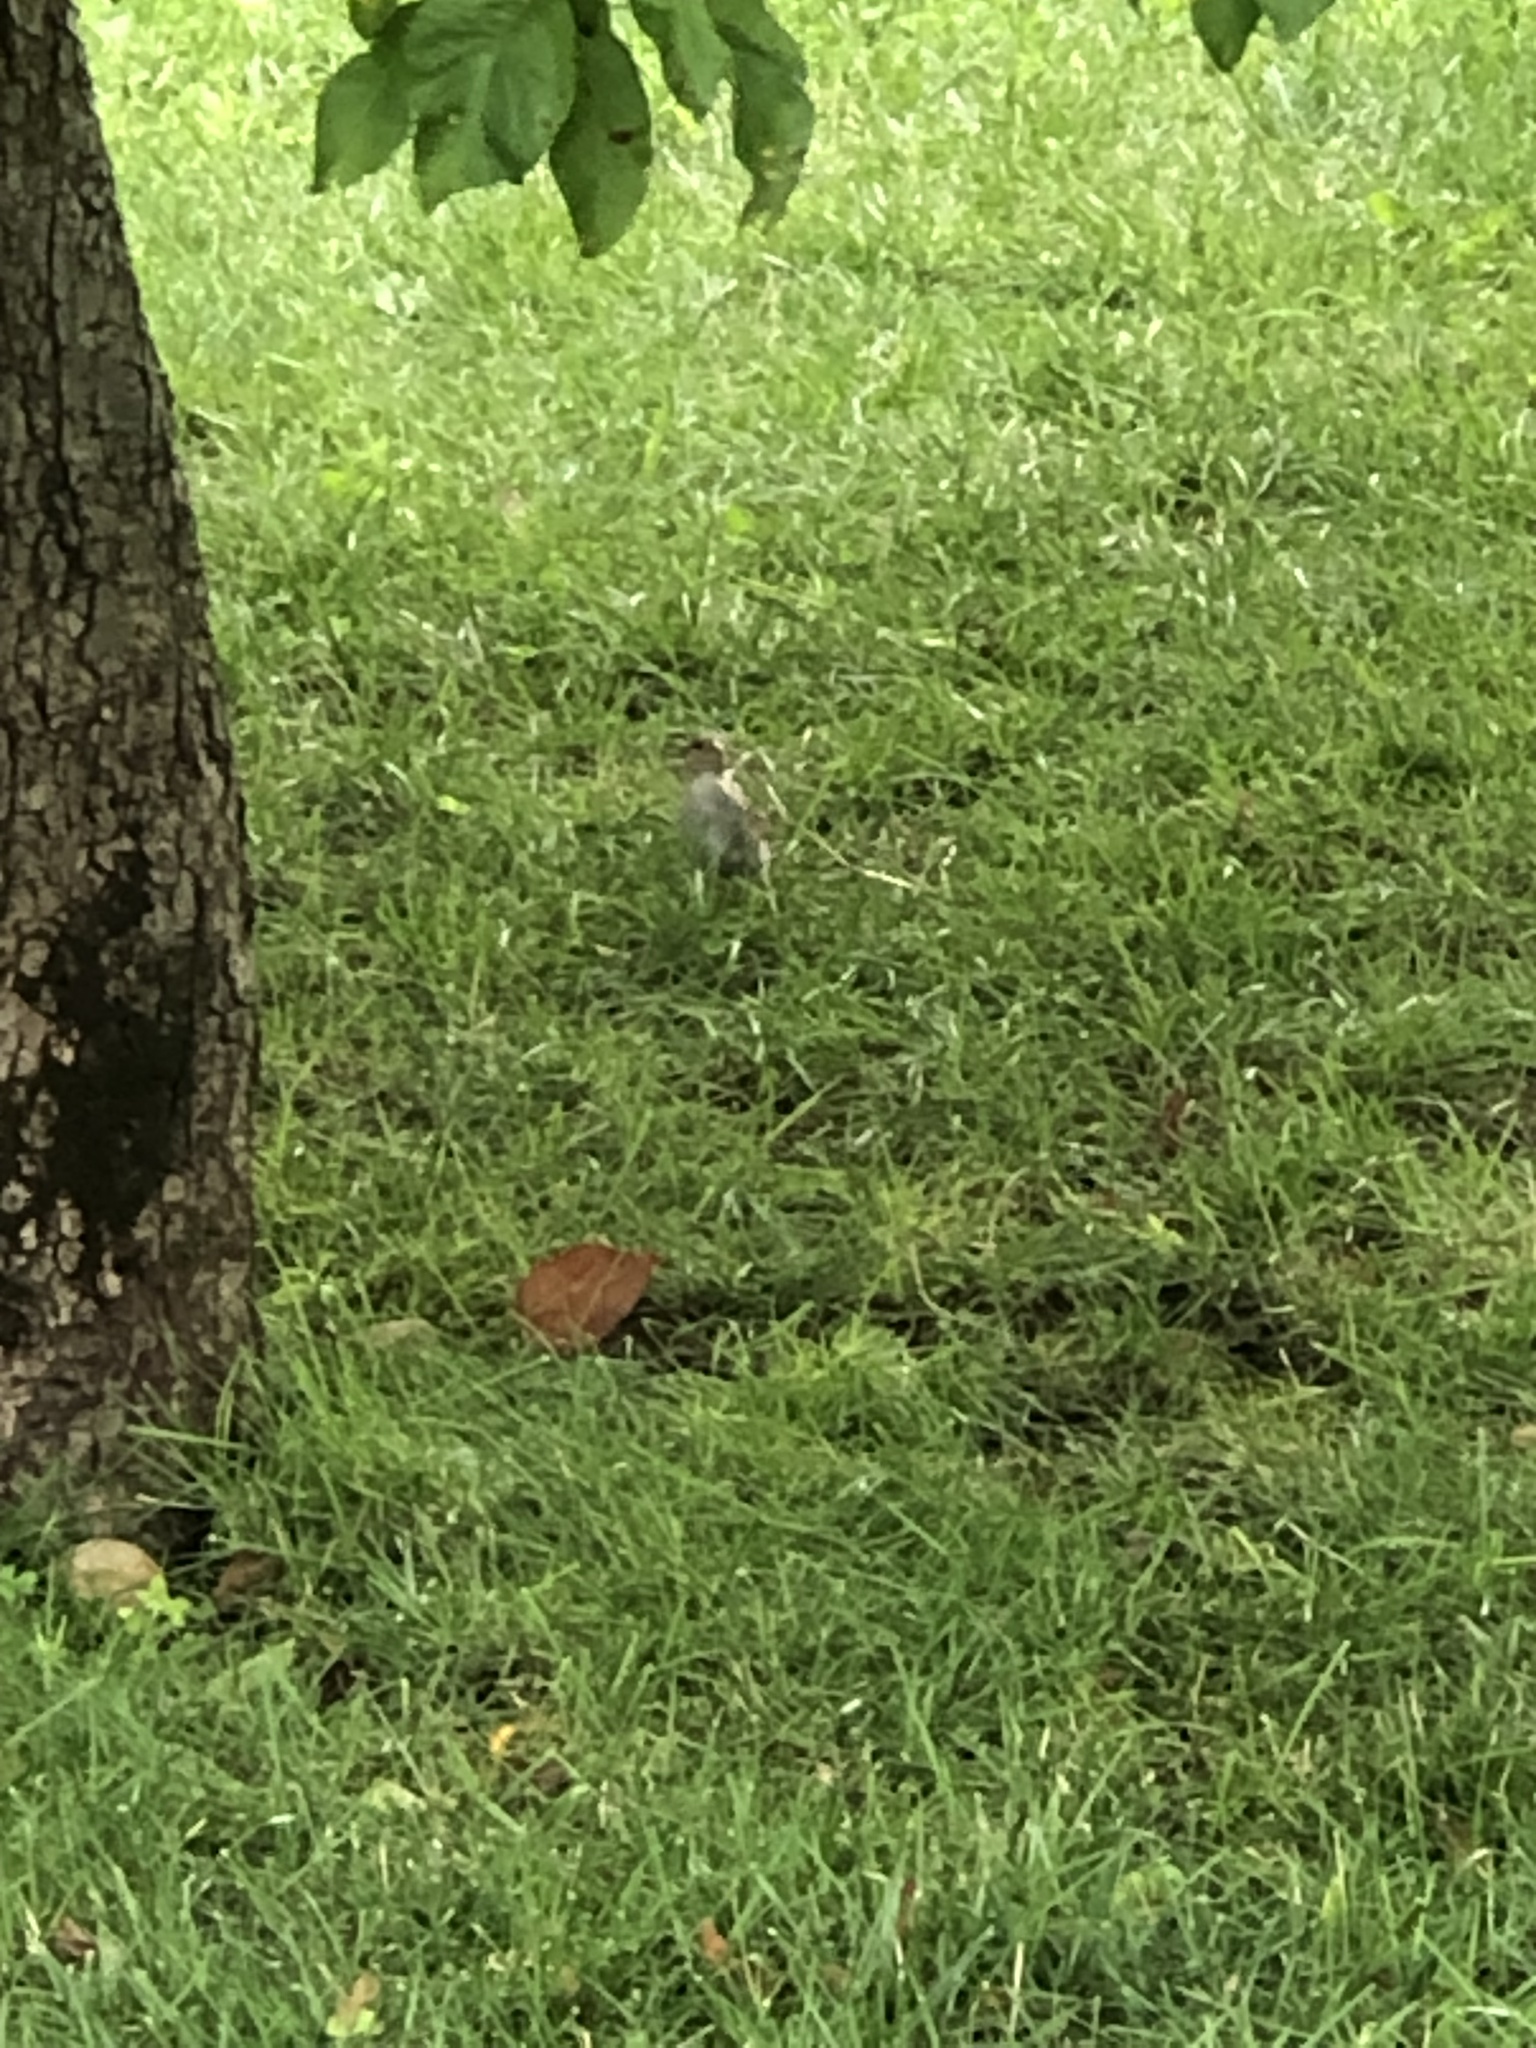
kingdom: Animalia
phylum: Chordata
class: Aves
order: Passeriformes
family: Passeridae
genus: Passer
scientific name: Passer domesticus
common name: House sparrow
